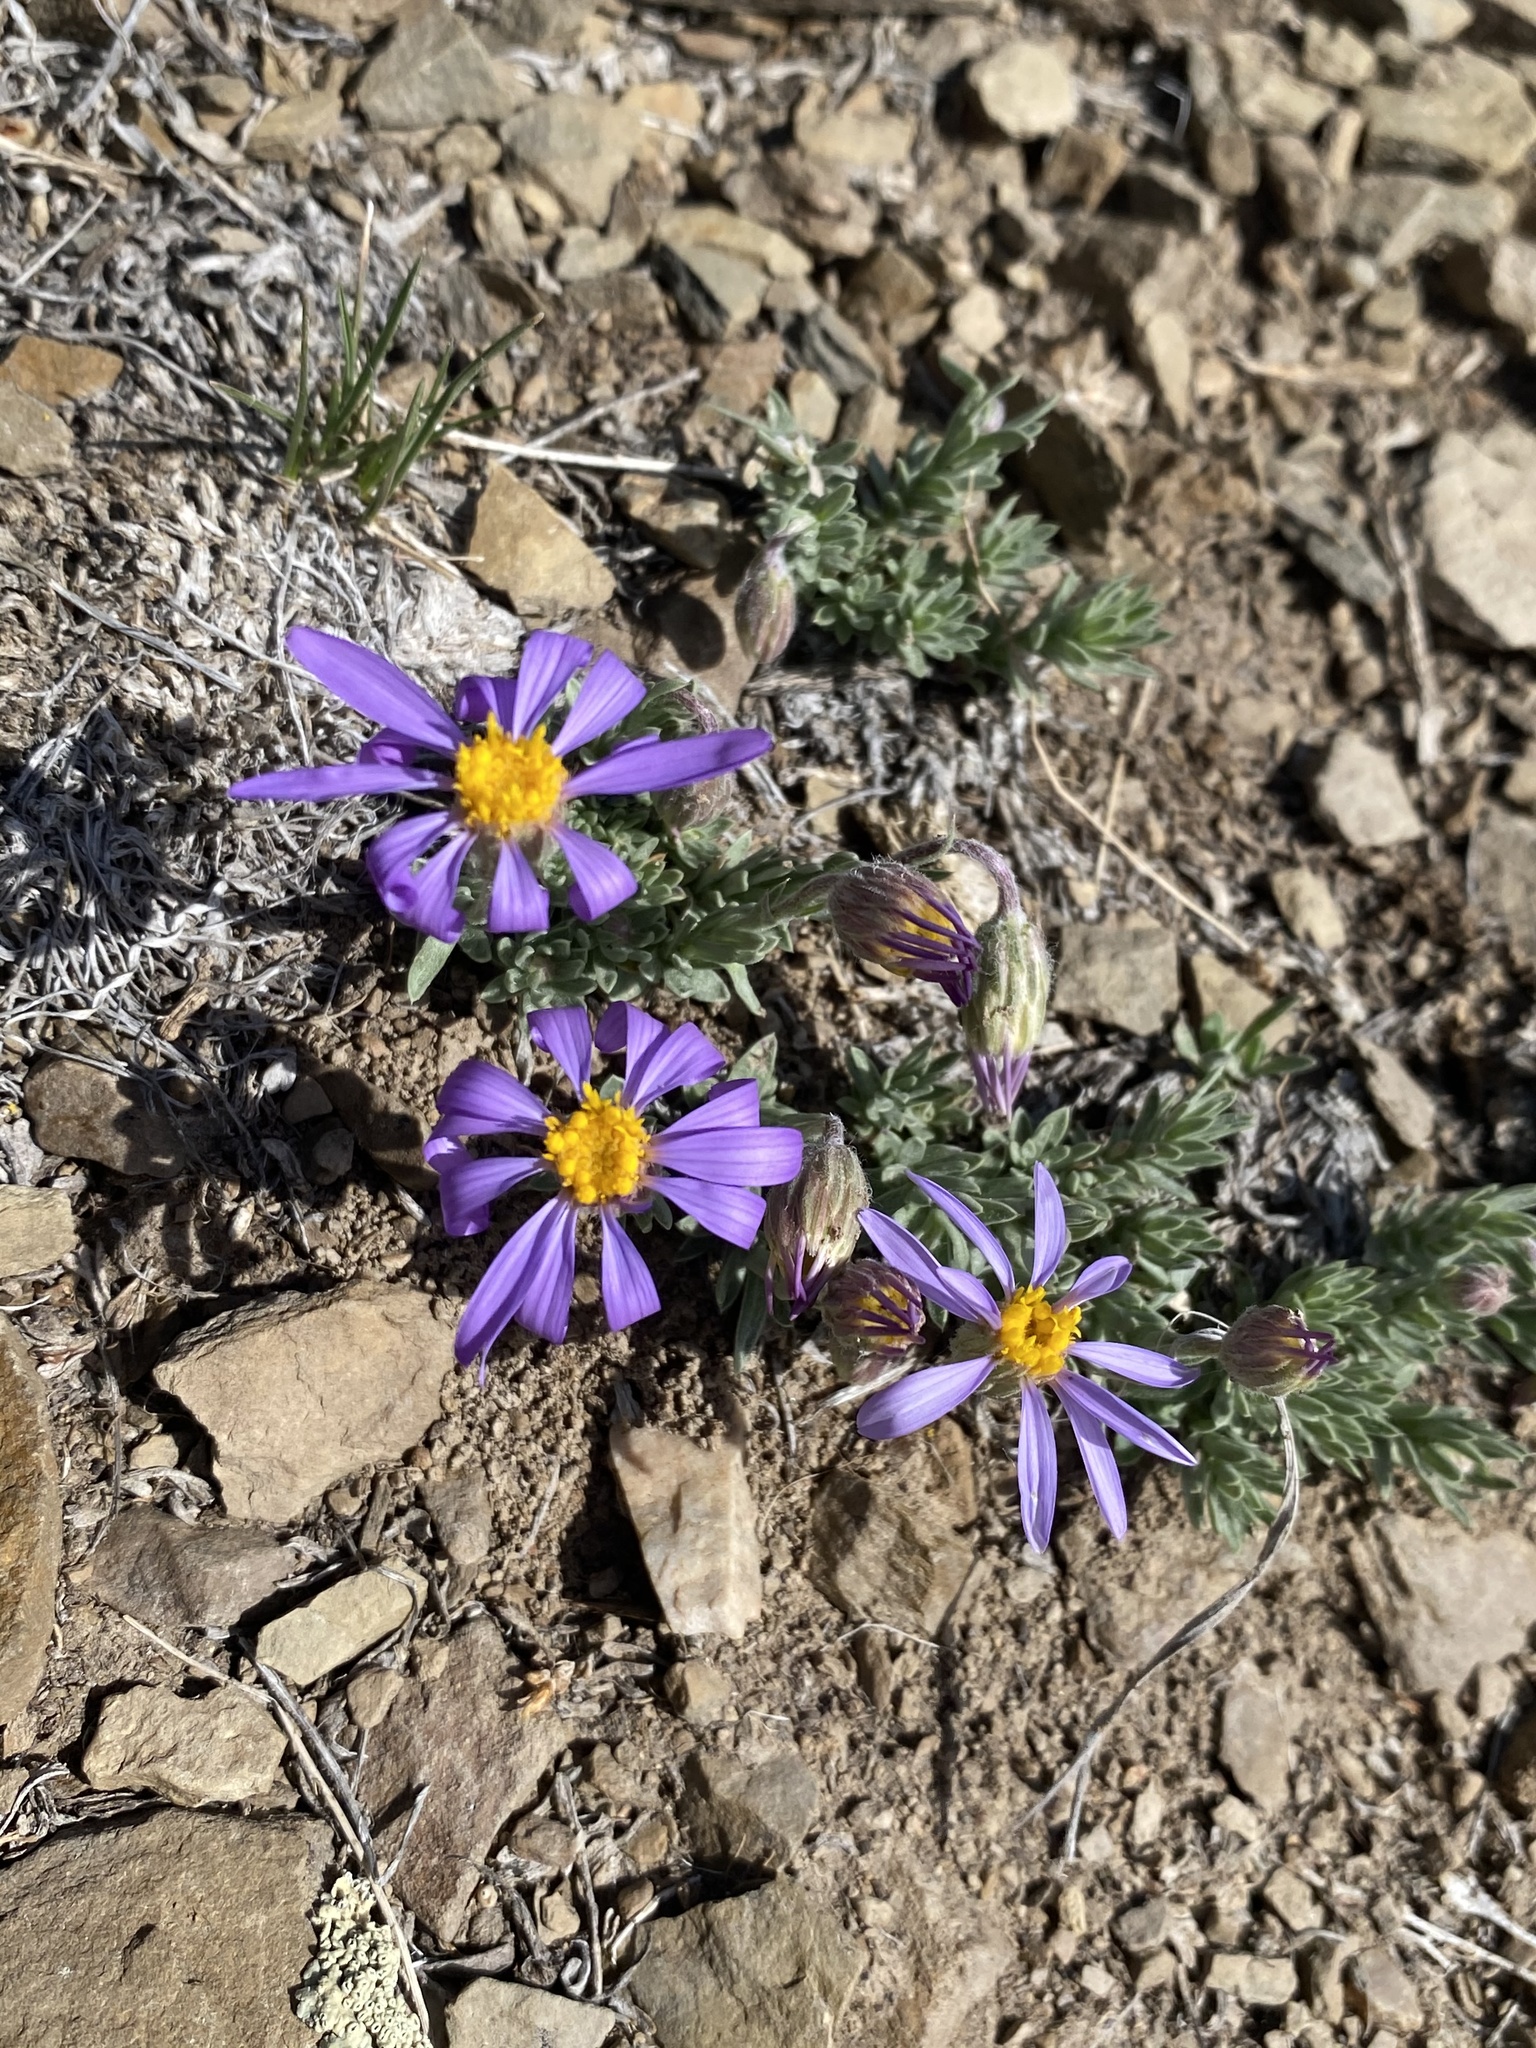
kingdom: Plantae
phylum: Tracheophyta
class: Magnoliopsida
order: Asterales
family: Asteraceae
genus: Ionactis
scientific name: Ionactis alpina
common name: Crag aster
